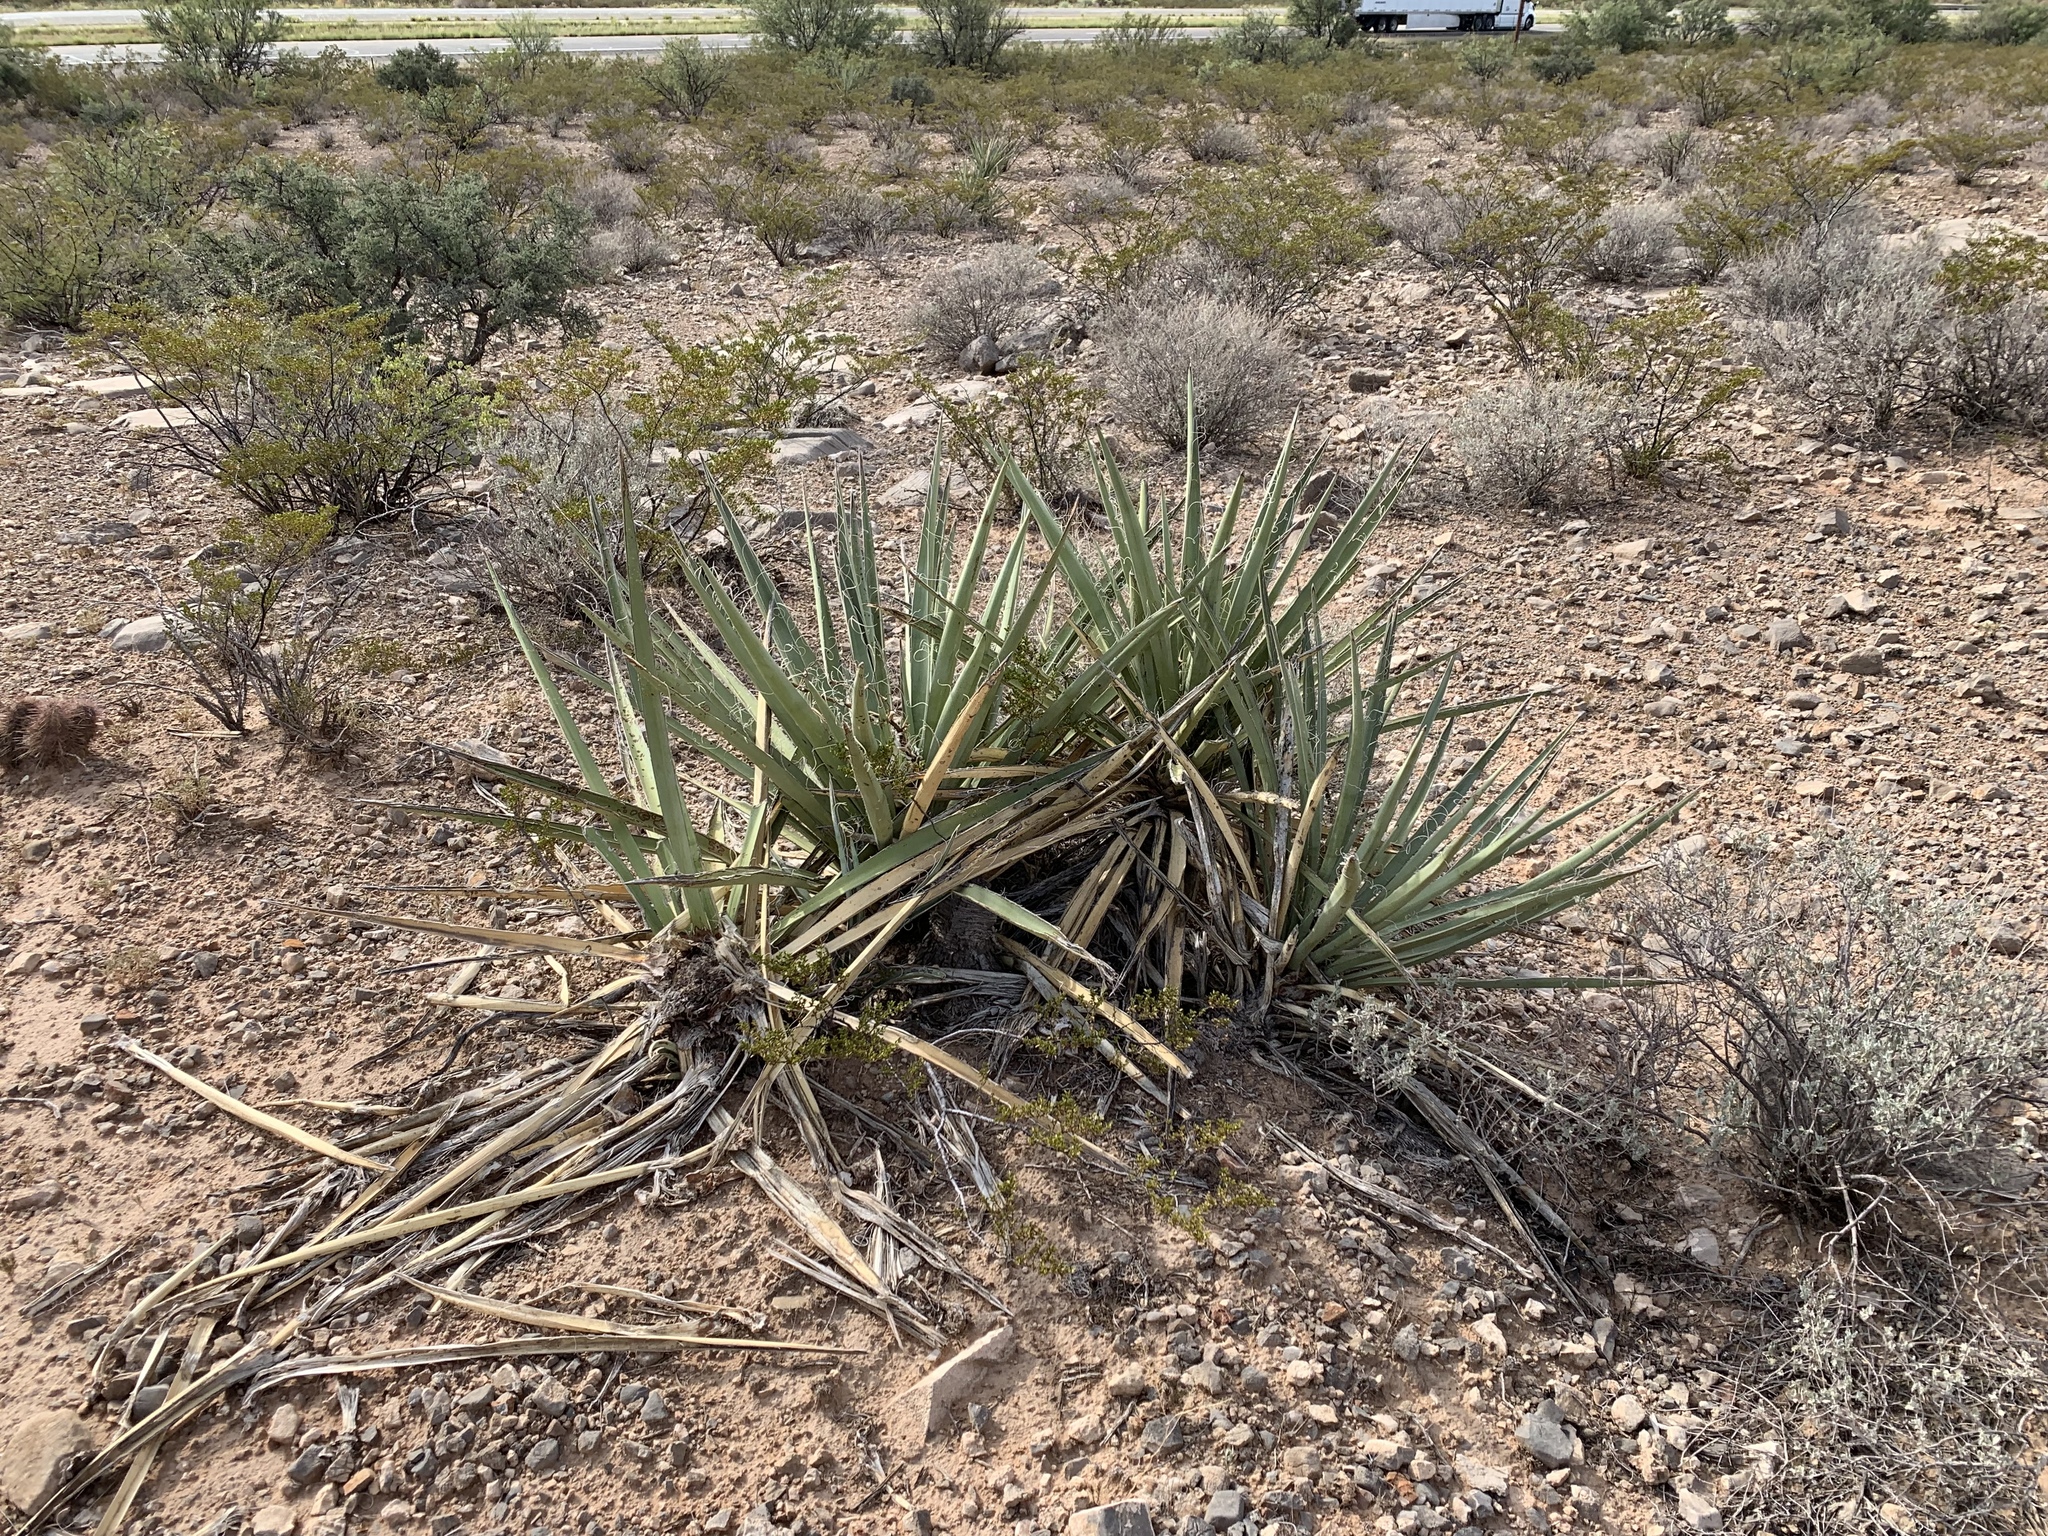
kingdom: Plantae
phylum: Tracheophyta
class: Liliopsida
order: Asparagales
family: Asparagaceae
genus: Yucca
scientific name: Yucca baccata
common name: Banana yucca
